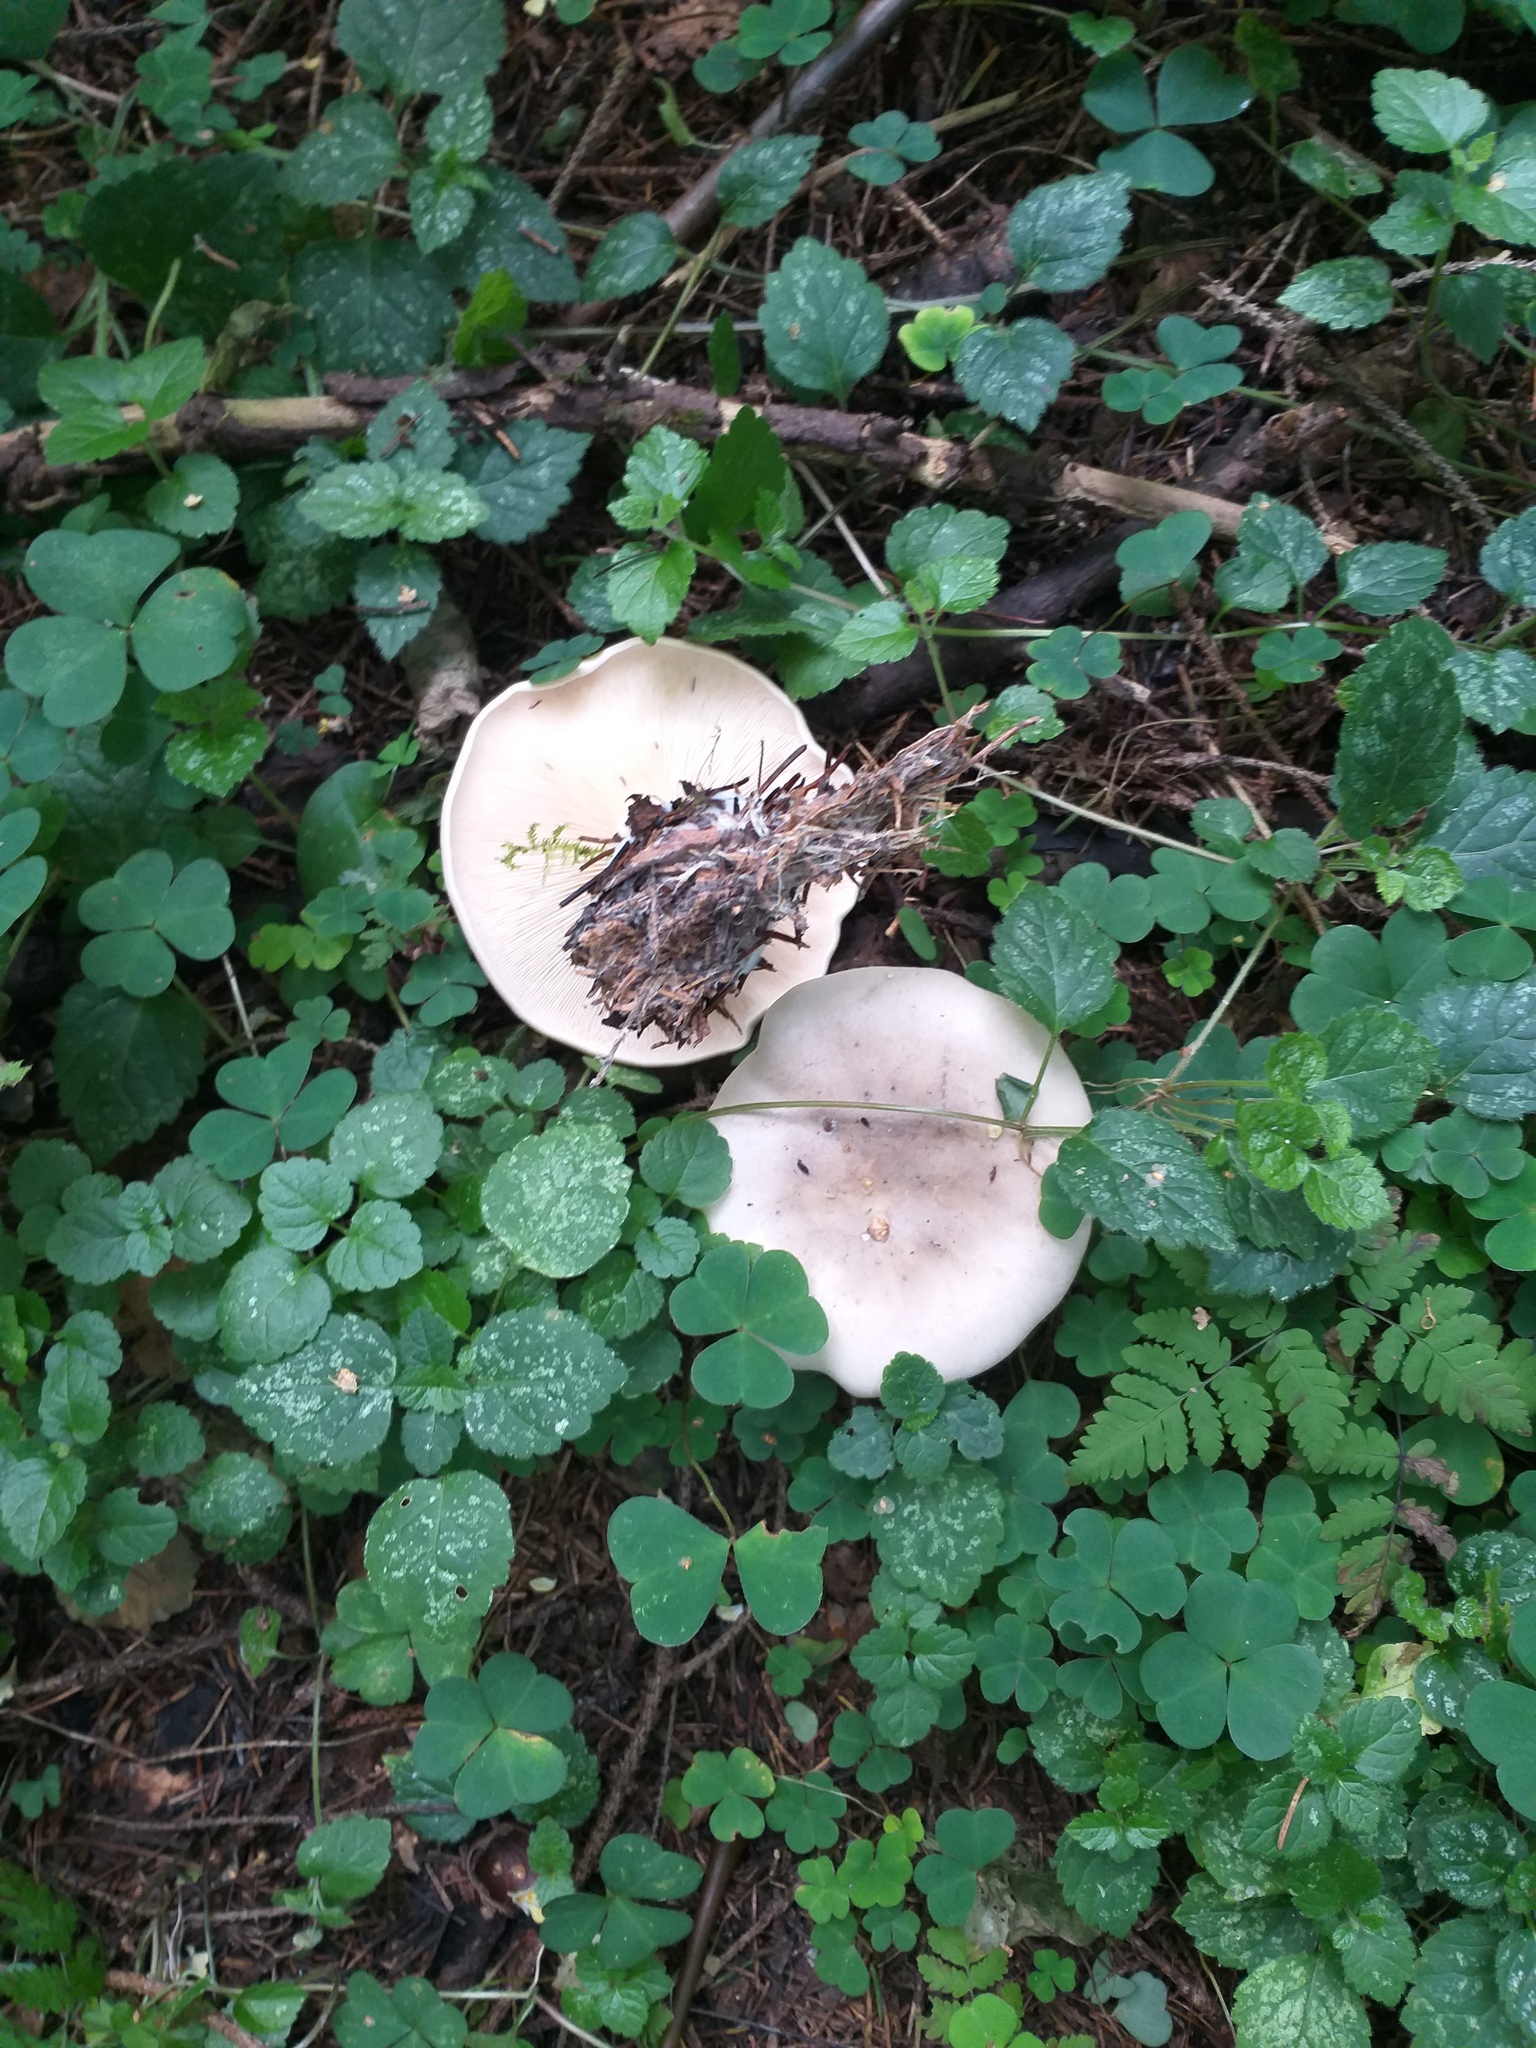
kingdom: Fungi
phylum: Basidiomycota
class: Agaricomycetes
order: Agaricales
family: Tricholomataceae
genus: Clitocybe
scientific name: Clitocybe nebularis
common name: Clouded agaric
